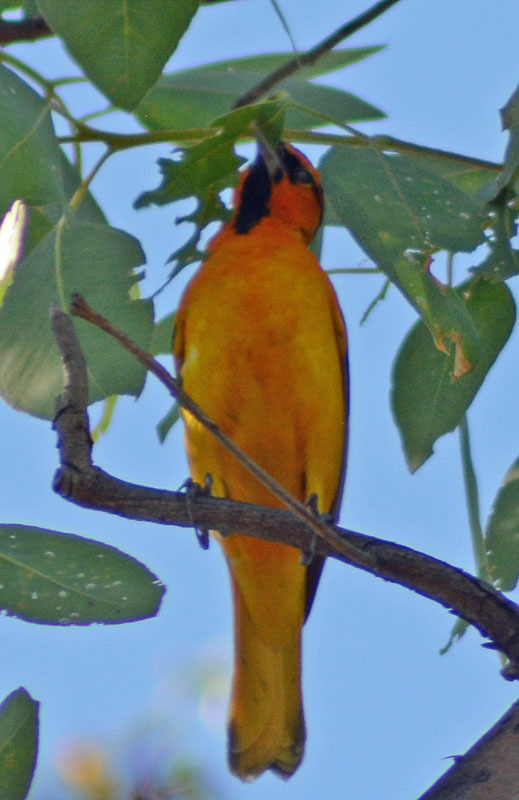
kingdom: Animalia
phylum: Chordata
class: Aves
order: Passeriformes
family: Icteridae
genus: Icterus
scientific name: Icterus bullockii
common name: Bullock's oriole
